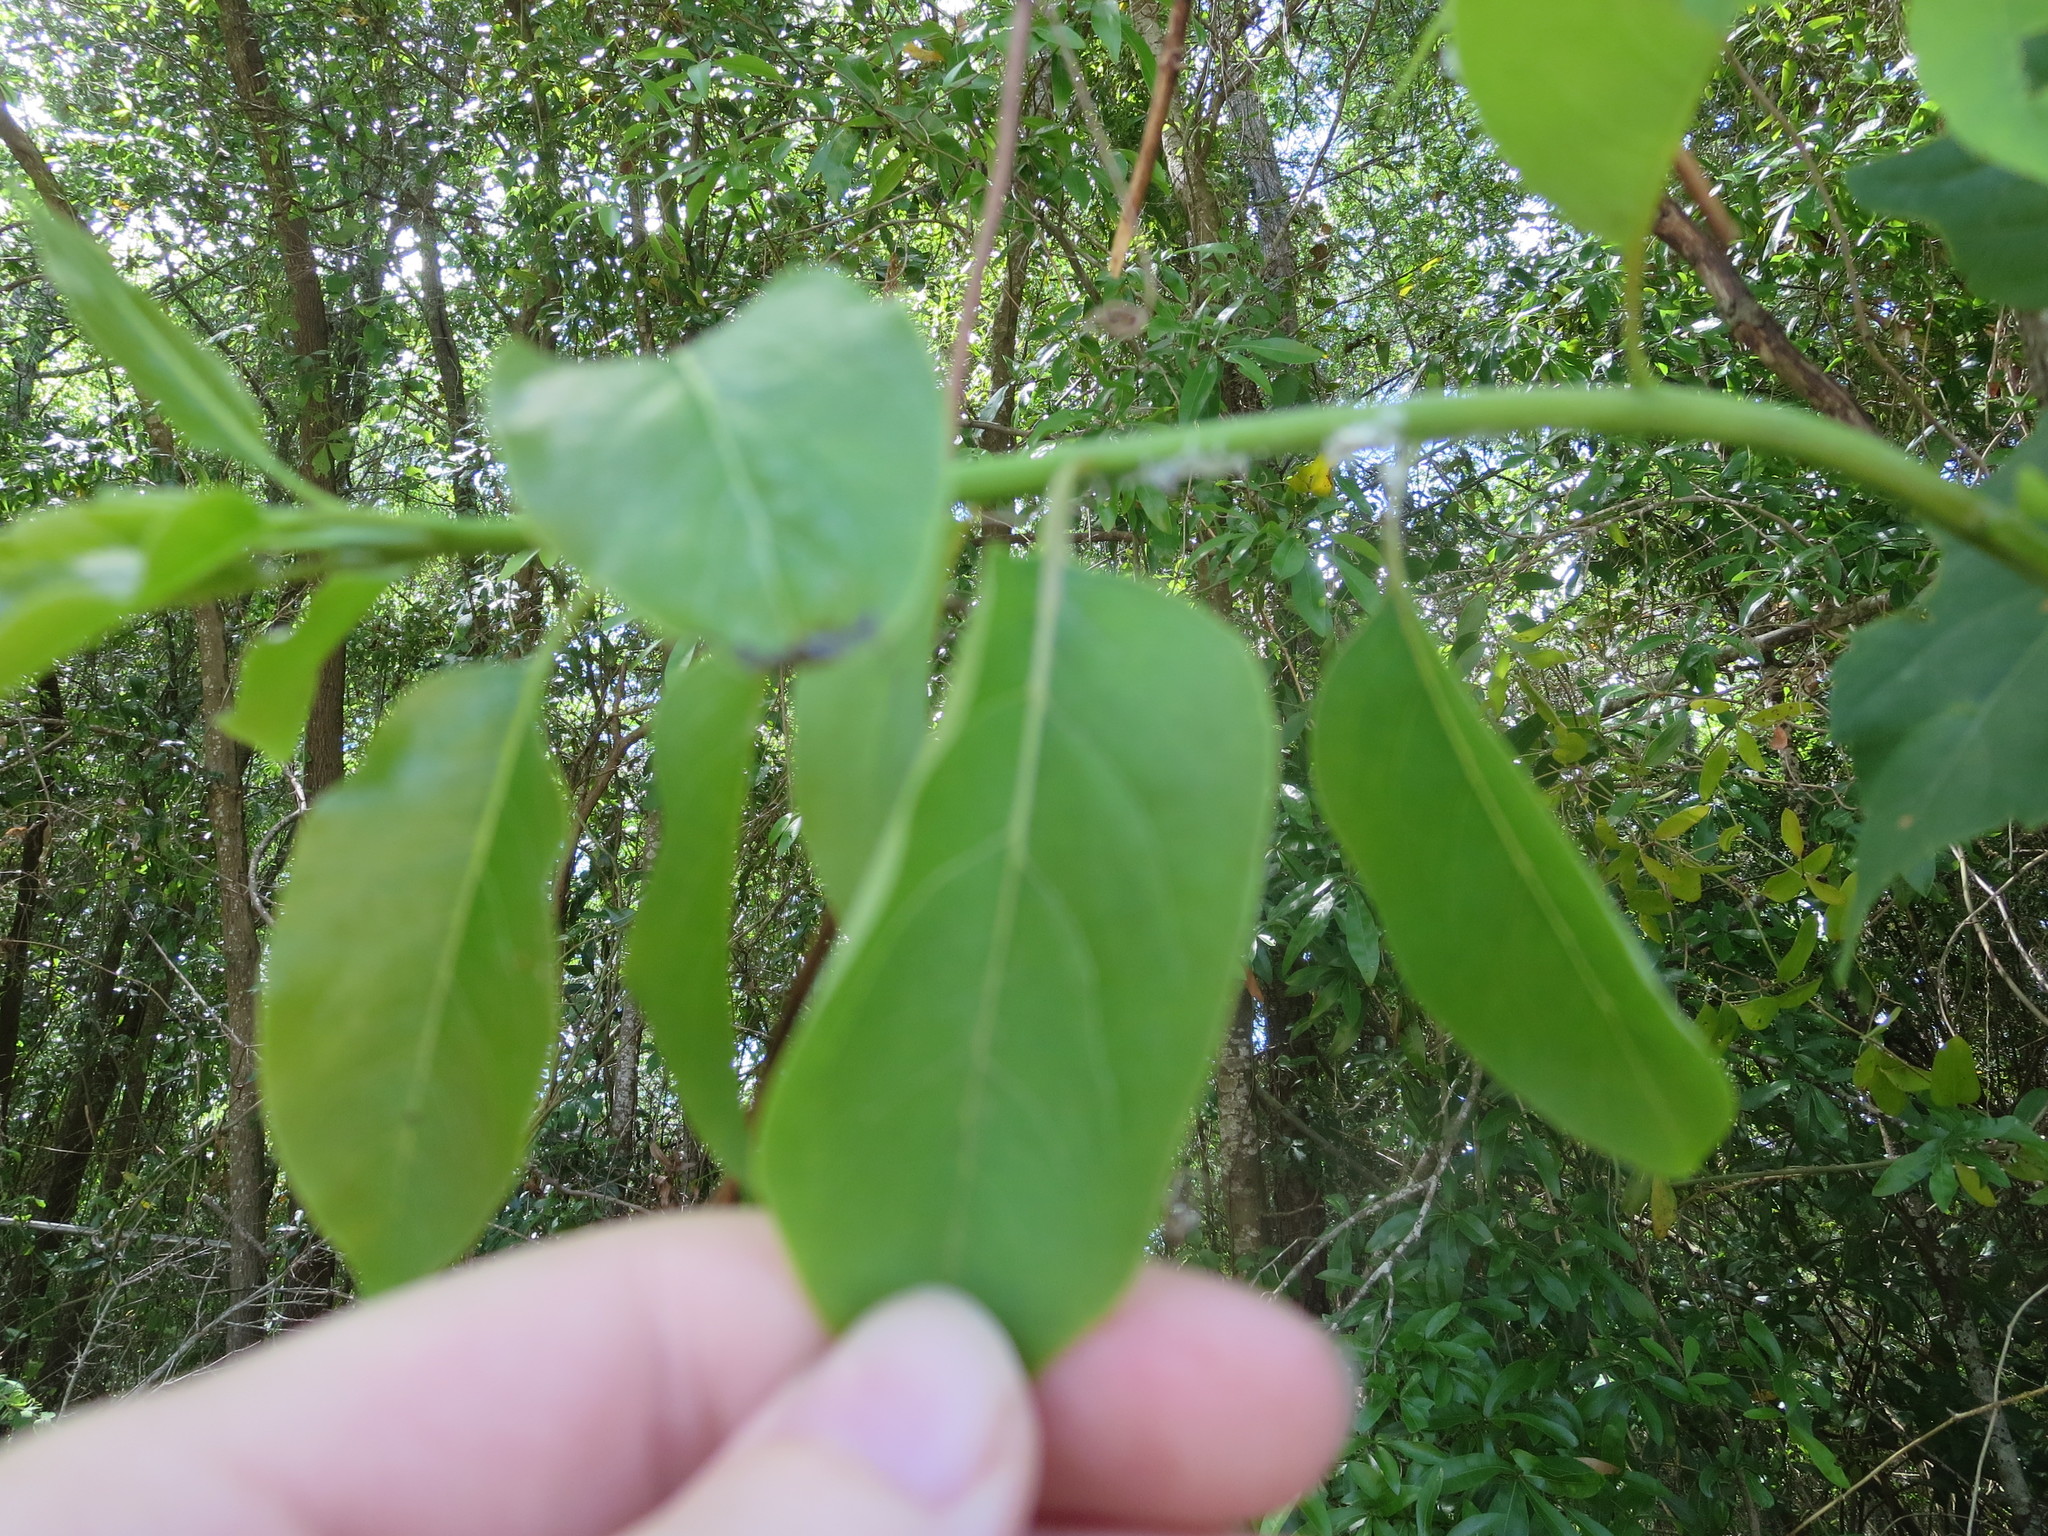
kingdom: Plantae
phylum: Tracheophyta
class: Magnoliopsida
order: Ericales
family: Ebenaceae
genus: Diospyros
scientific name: Diospyros virginiana
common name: Persimmon
